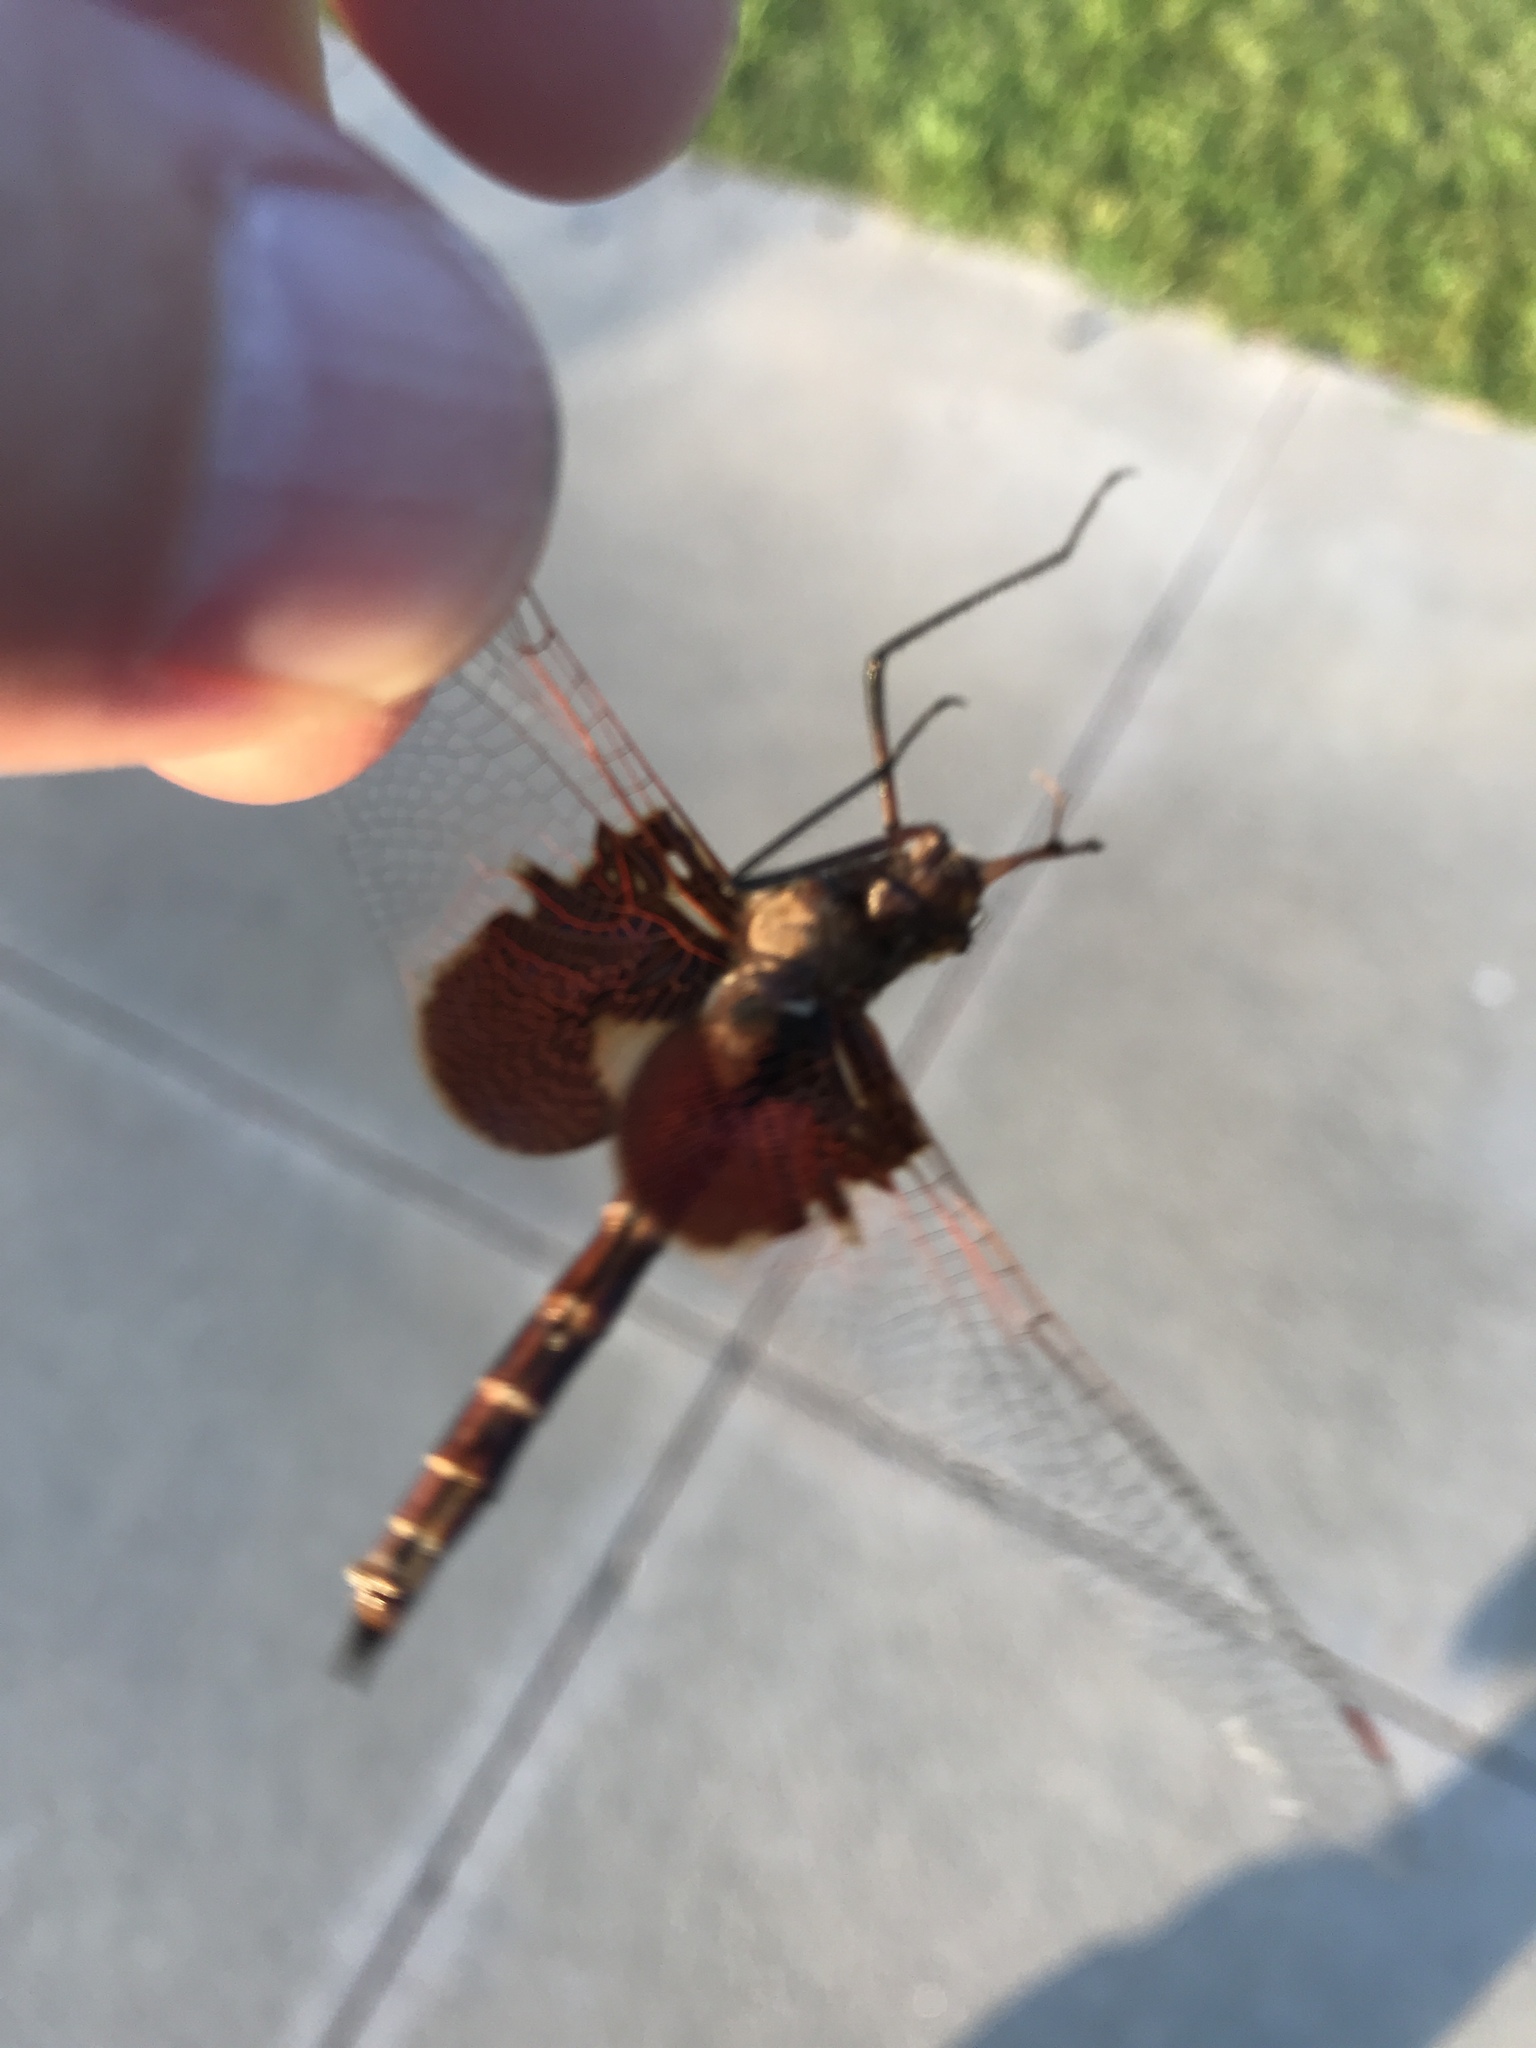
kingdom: Animalia
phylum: Arthropoda
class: Insecta
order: Odonata
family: Libellulidae
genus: Tramea
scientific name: Tramea onusta
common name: Red saddlebags
